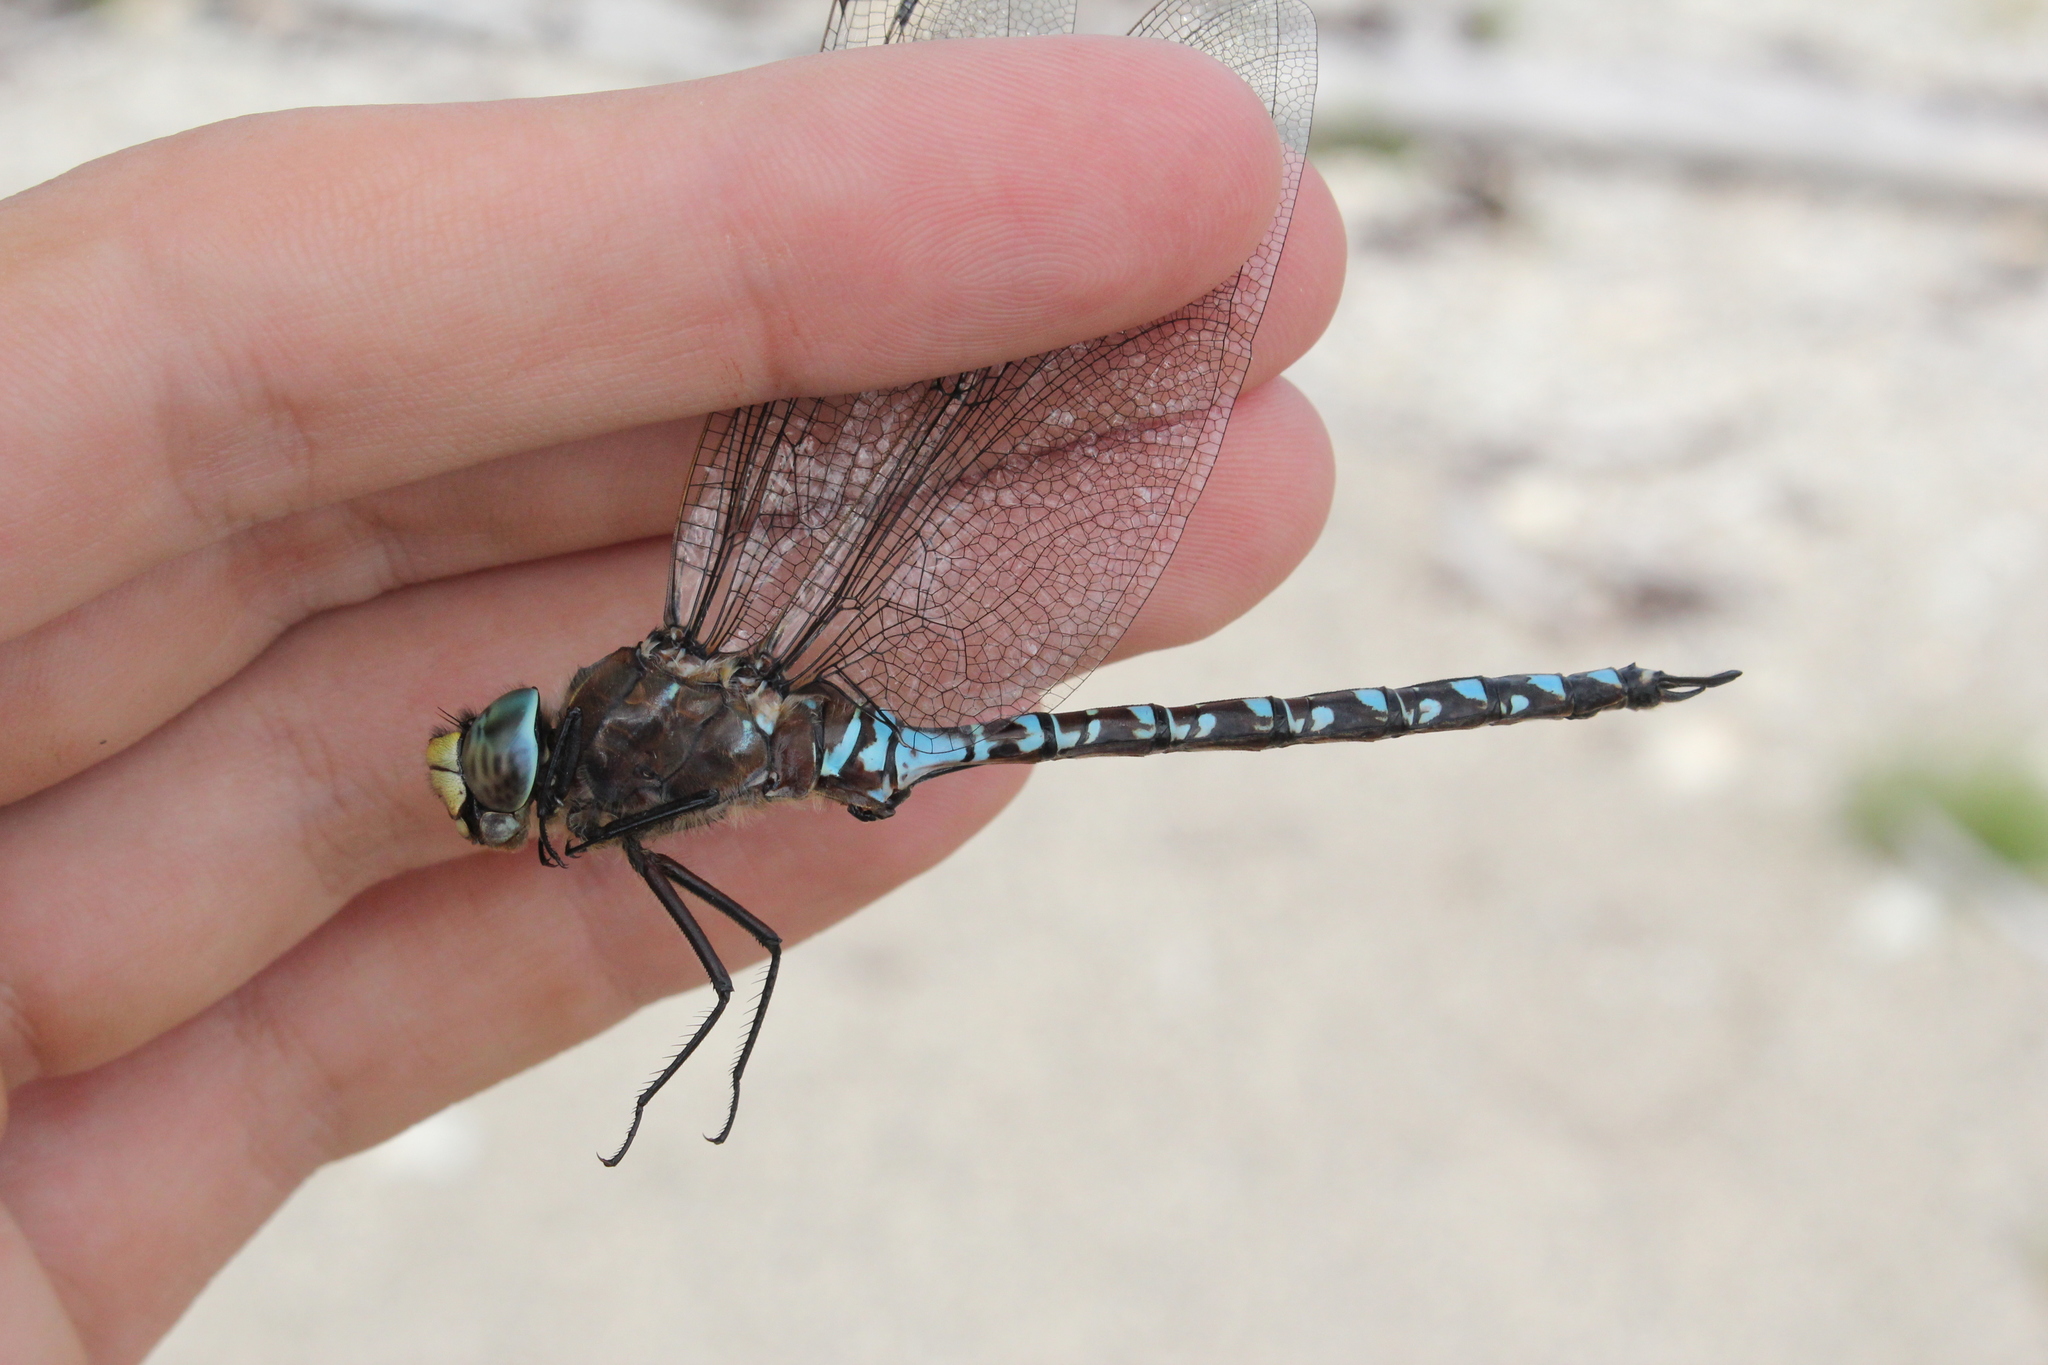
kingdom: Animalia
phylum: Arthropoda
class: Insecta
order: Odonata
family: Aeshnidae
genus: Aeshna
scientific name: Aeshna interrupta
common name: Variable darner
